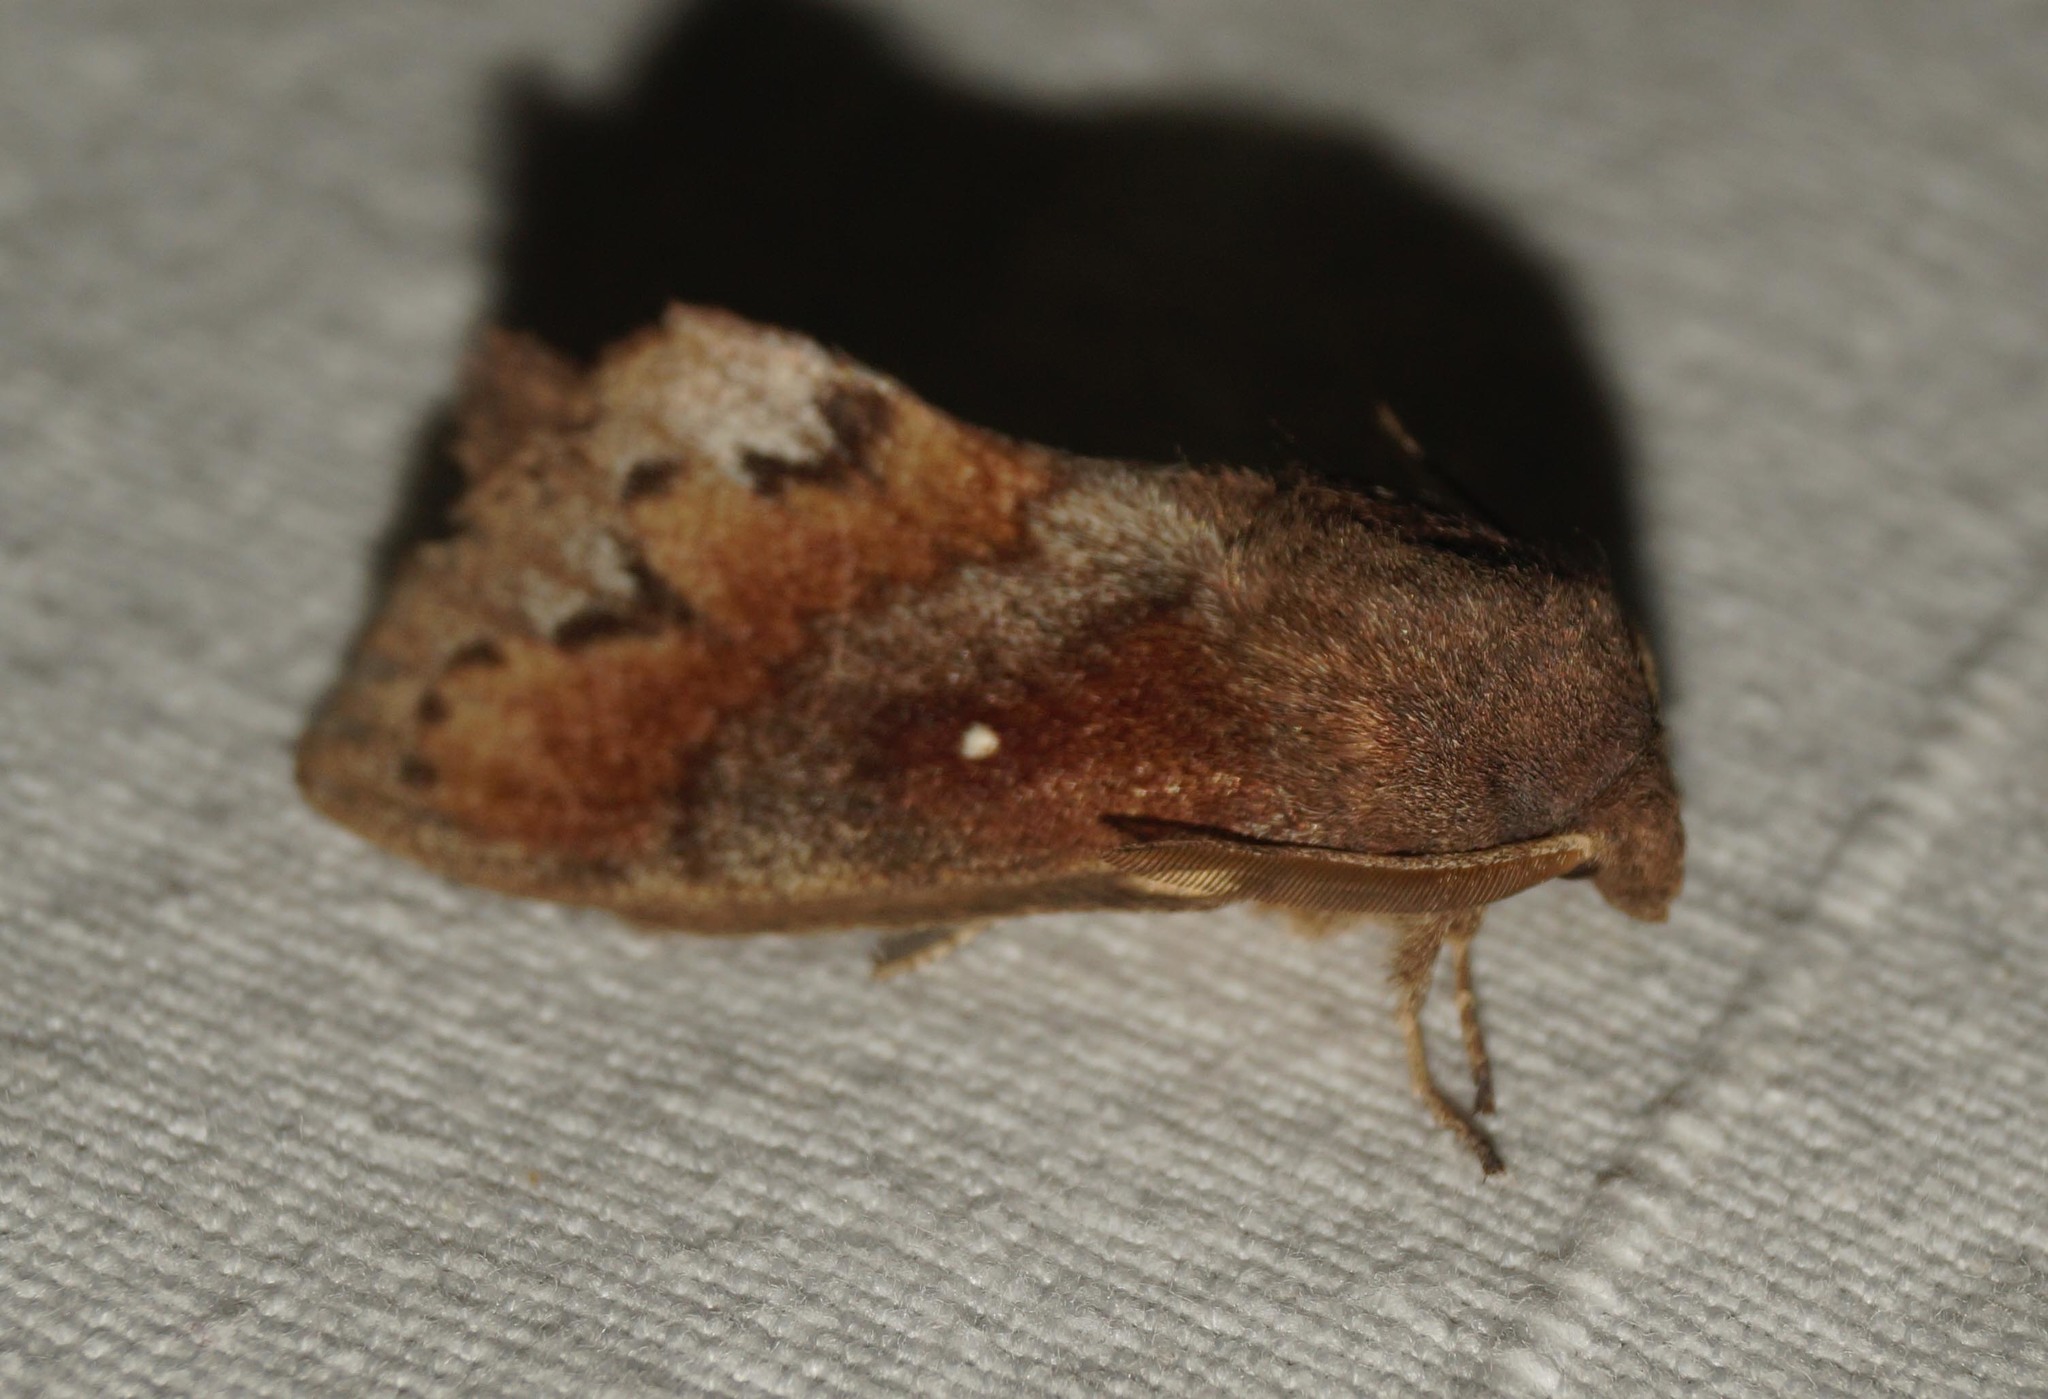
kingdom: Animalia
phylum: Arthropoda
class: Insecta
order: Lepidoptera
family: Lasiocampidae
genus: Dendrolimus
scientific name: Dendrolimus pini
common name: Pine-tree lappet
